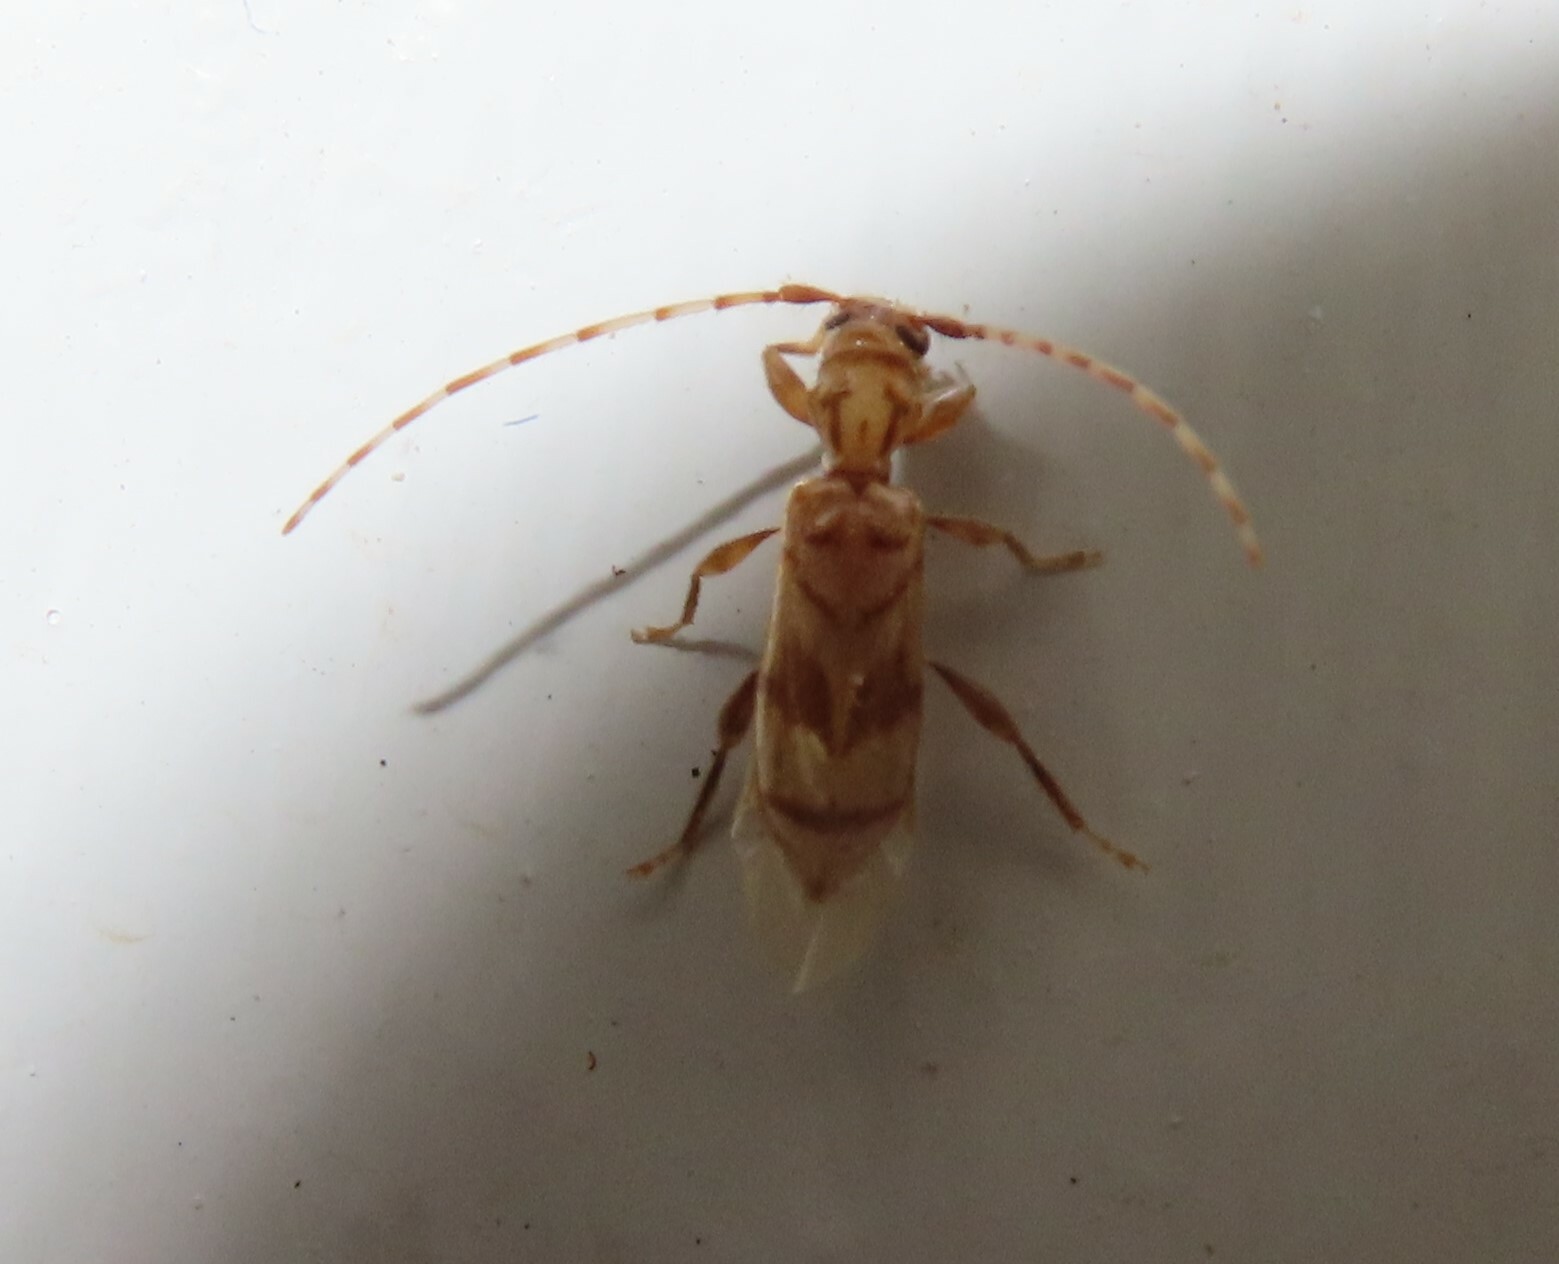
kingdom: Animalia
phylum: Arthropoda
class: Insecta
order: Coleoptera
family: Cerambycidae
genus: Obrium
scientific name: Obrium maculatum
